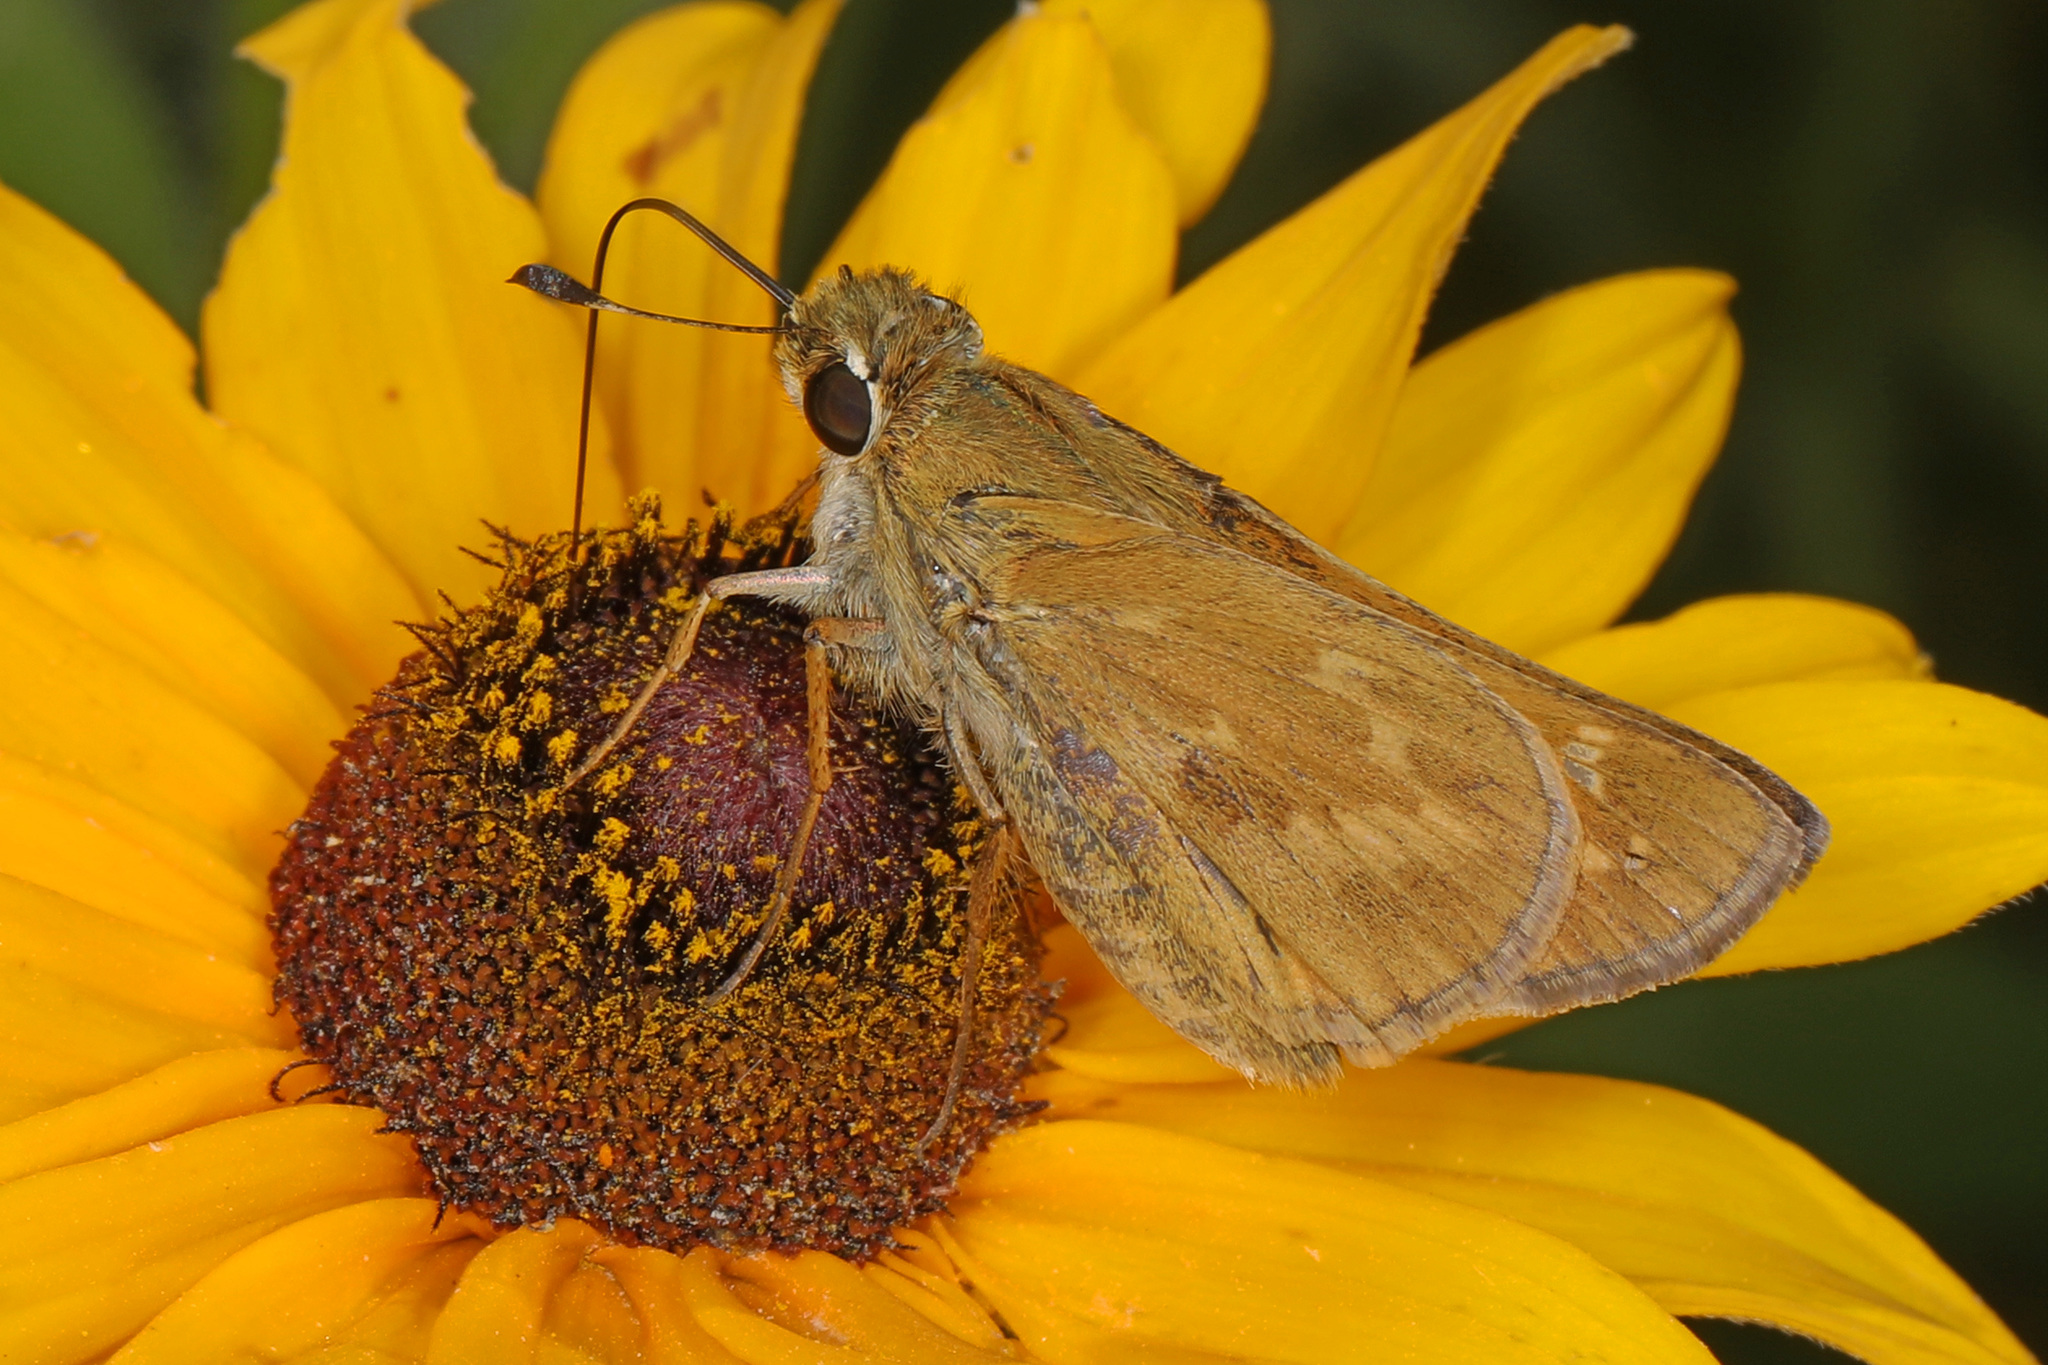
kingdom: Animalia
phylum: Arthropoda
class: Insecta
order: Lepidoptera
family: Hesperiidae
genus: Atalopedes
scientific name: Atalopedes
